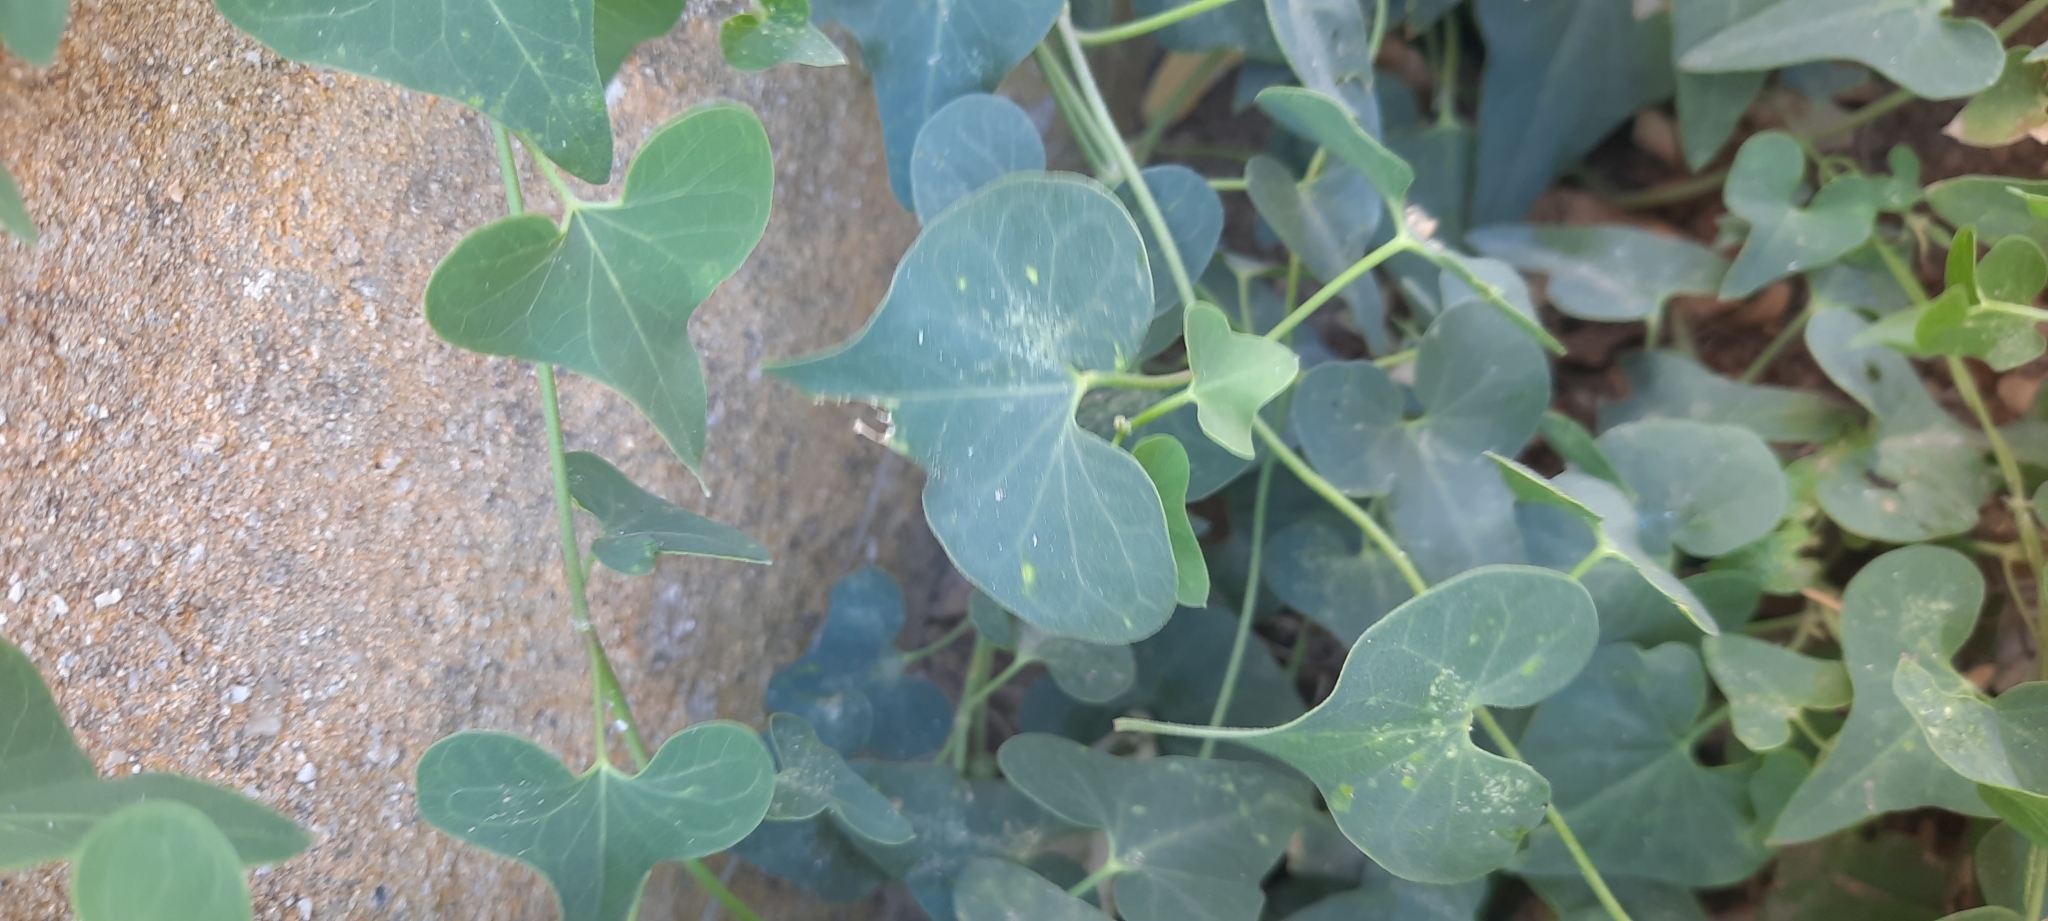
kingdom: Plantae
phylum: Tracheophyta
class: Magnoliopsida
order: Gentianales
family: Apocynaceae
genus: Cynanchum
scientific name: Cynanchum acutum
